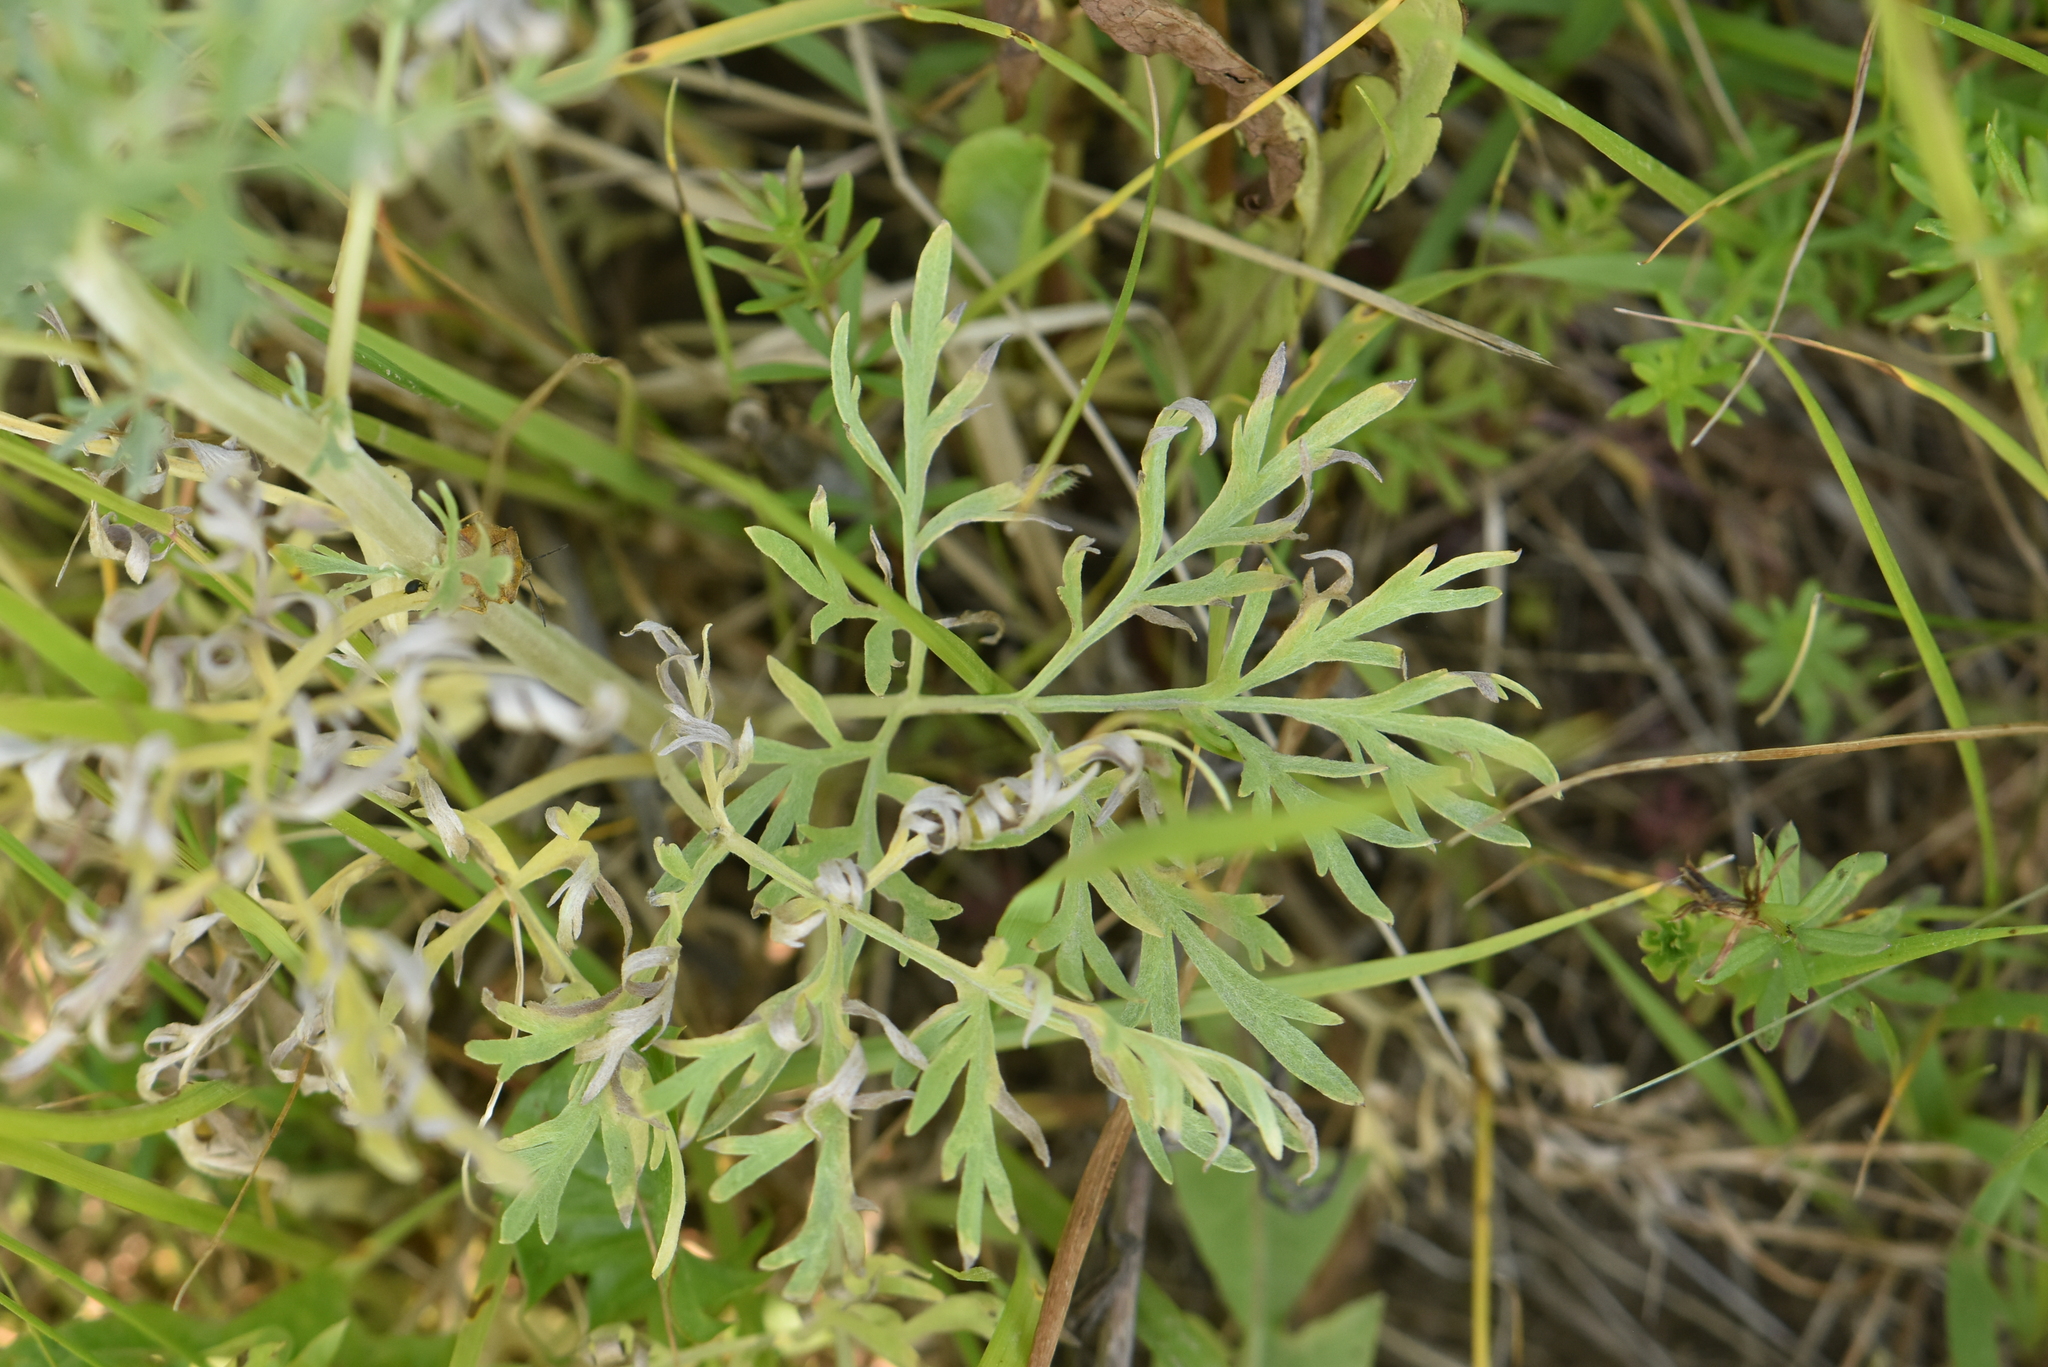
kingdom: Plantae
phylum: Tracheophyta
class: Magnoliopsida
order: Asterales
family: Asteraceae
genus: Artemisia
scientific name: Artemisia absinthium
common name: Wormwood
